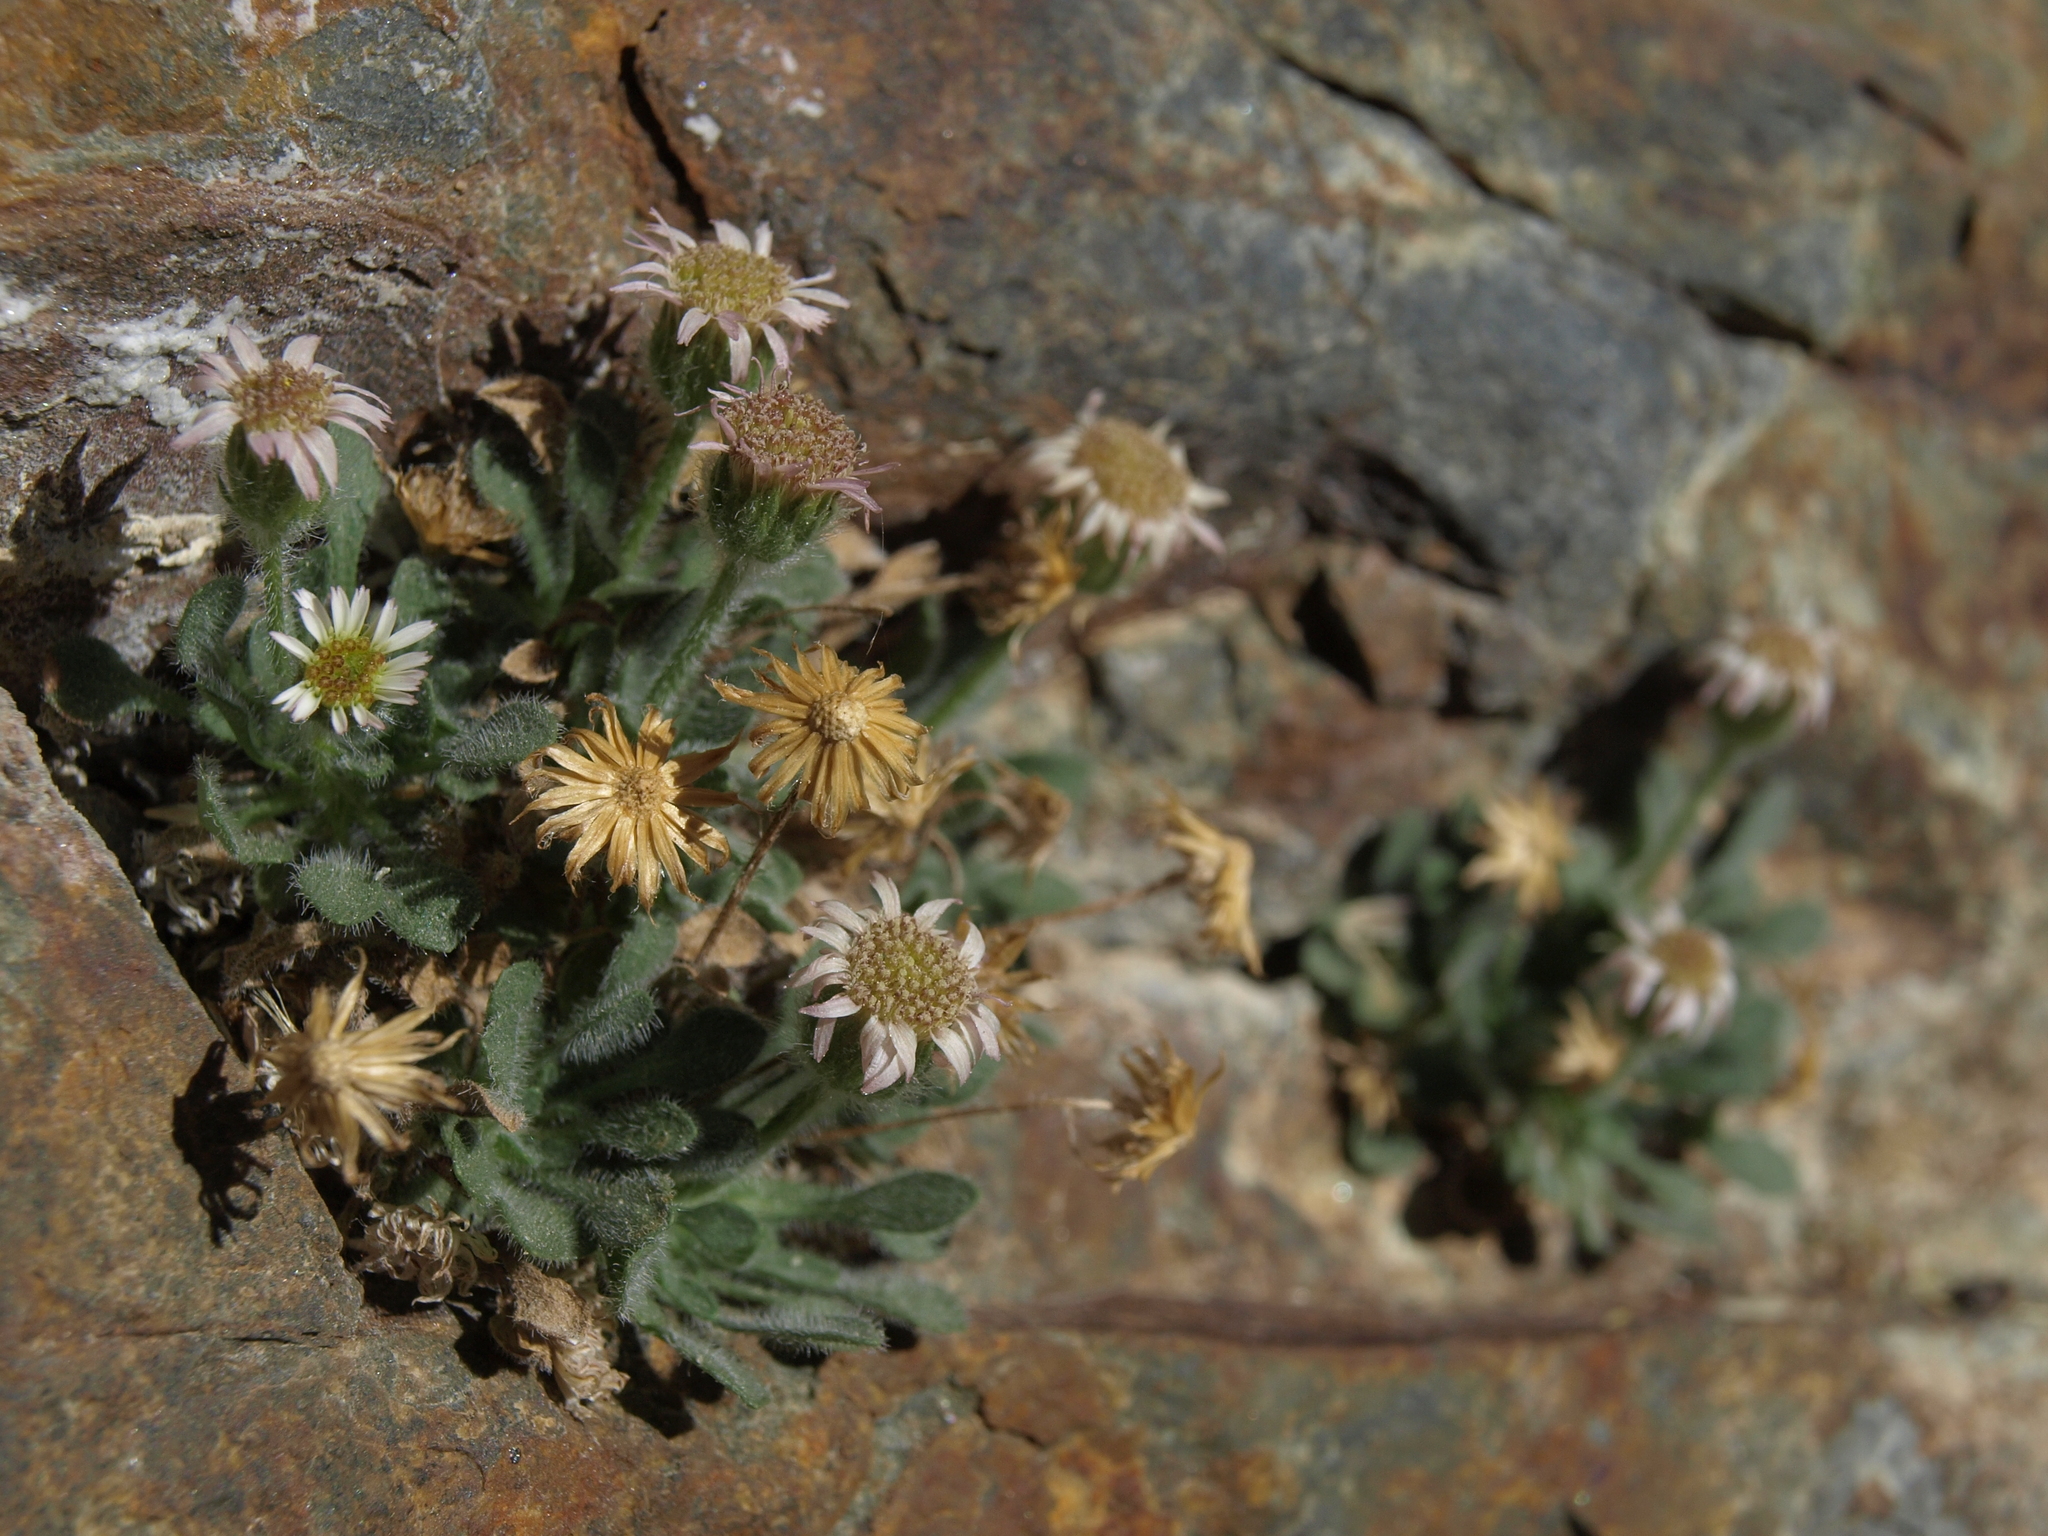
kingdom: Plantae
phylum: Tracheophyta
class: Magnoliopsida
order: Asterales
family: Asteraceae
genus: Erigeron
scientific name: Erigeron uncialis
